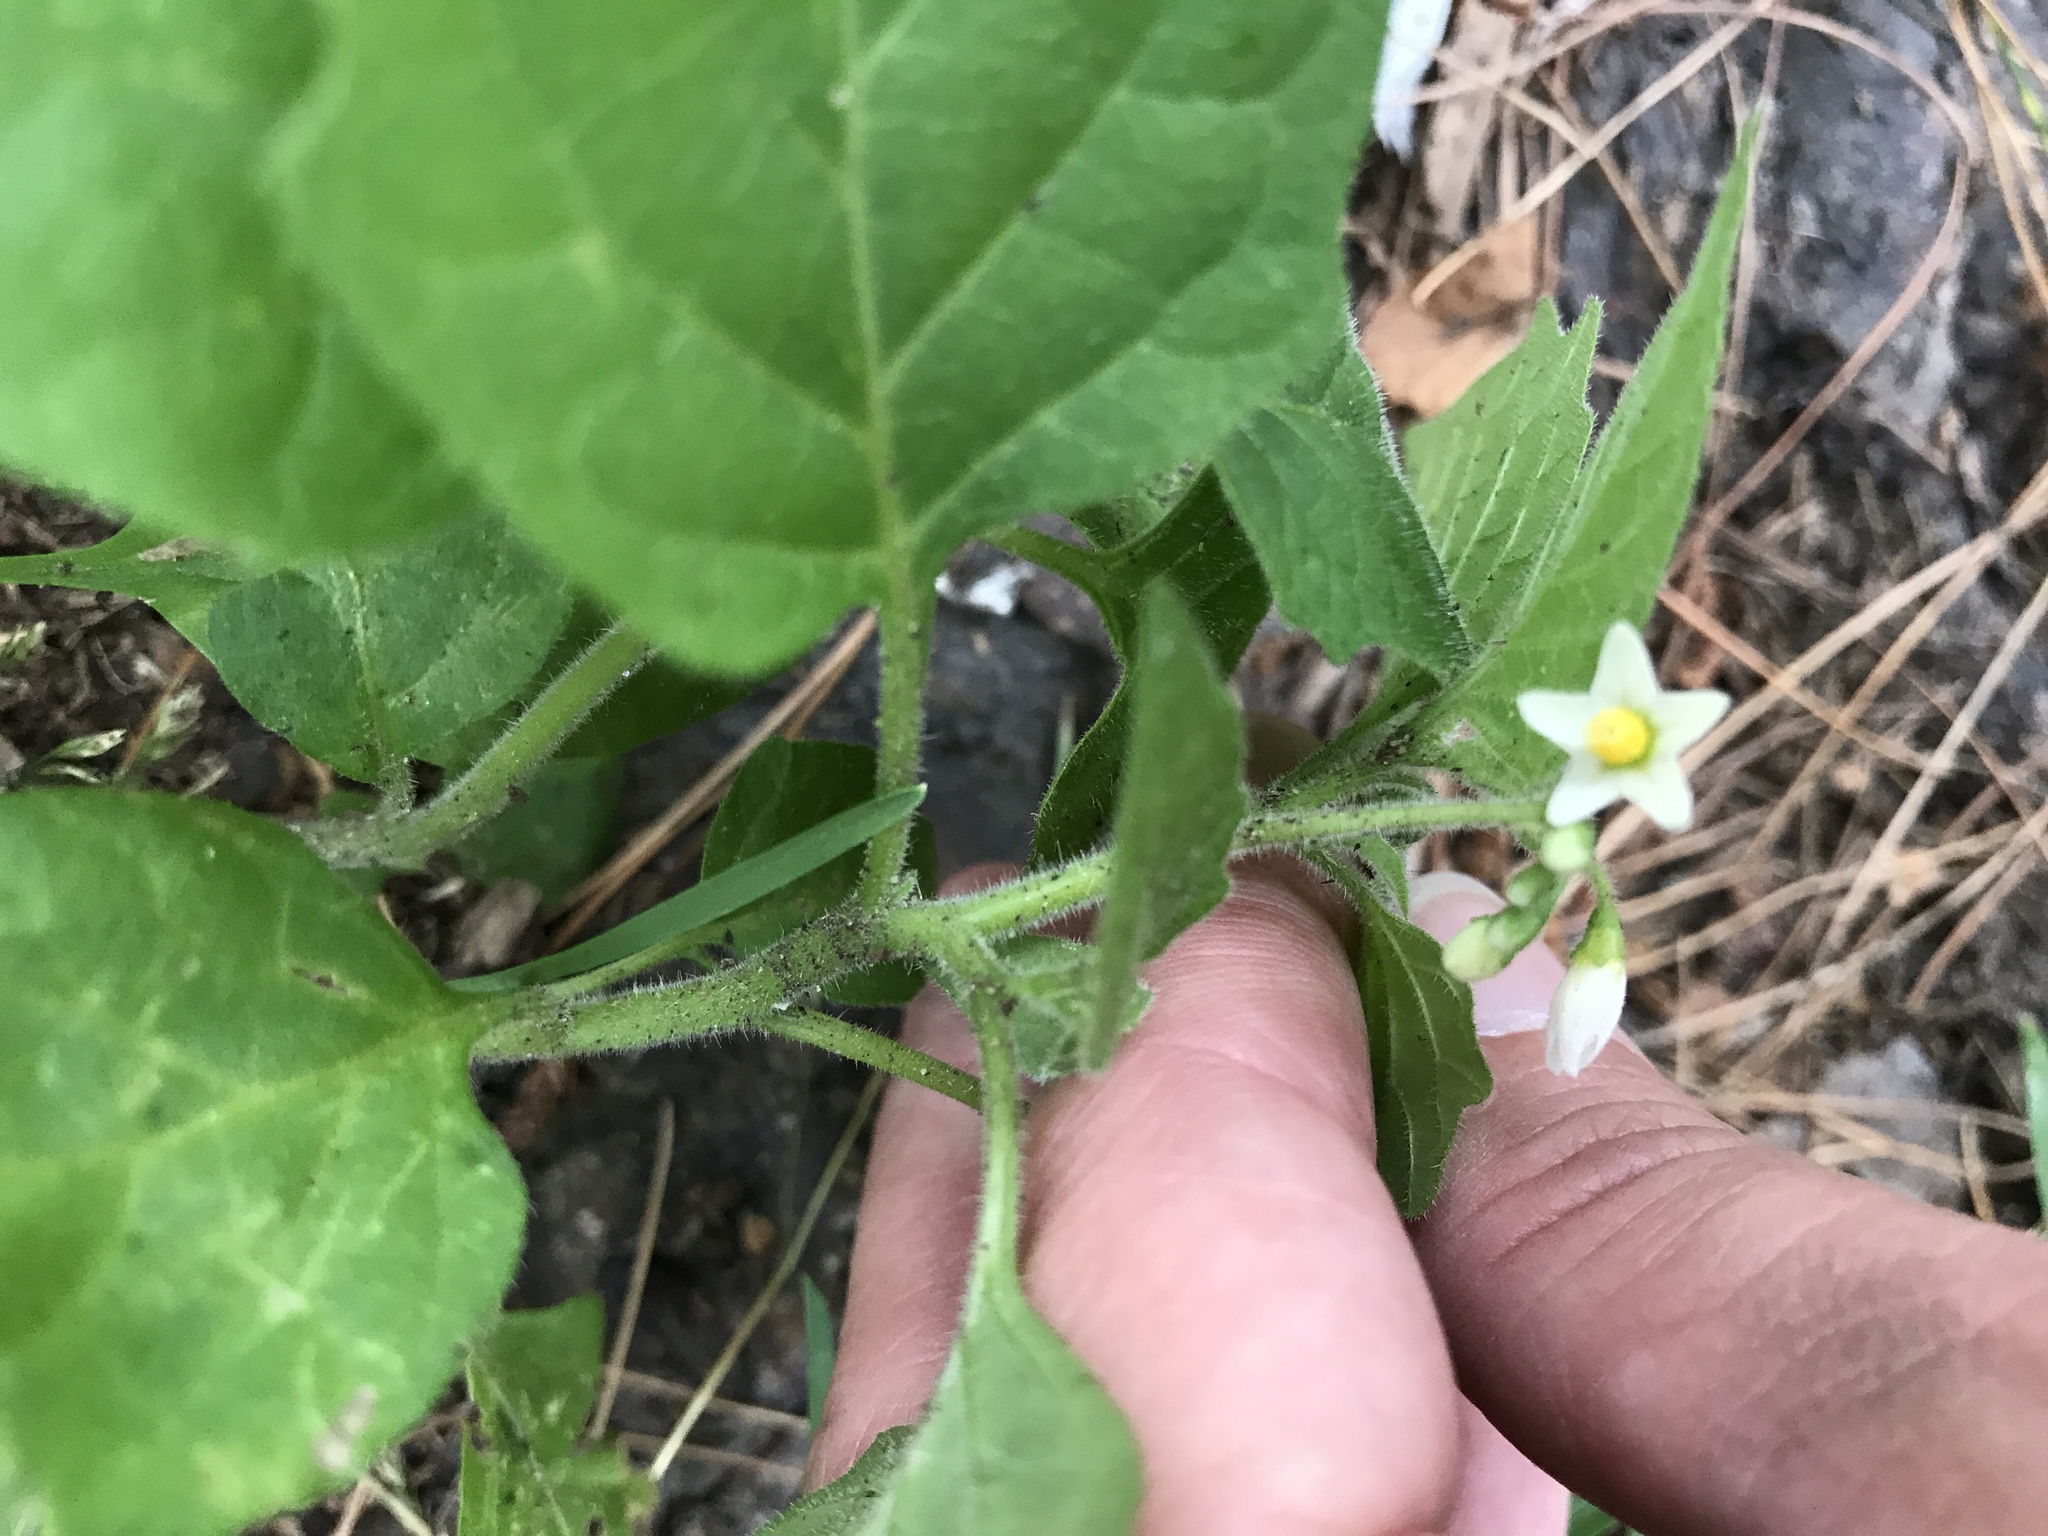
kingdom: Plantae
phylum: Tracheophyta
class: Magnoliopsida
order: Solanales
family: Solanaceae
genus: Solanum
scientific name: Solanum nigrum
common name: Black nightshade
